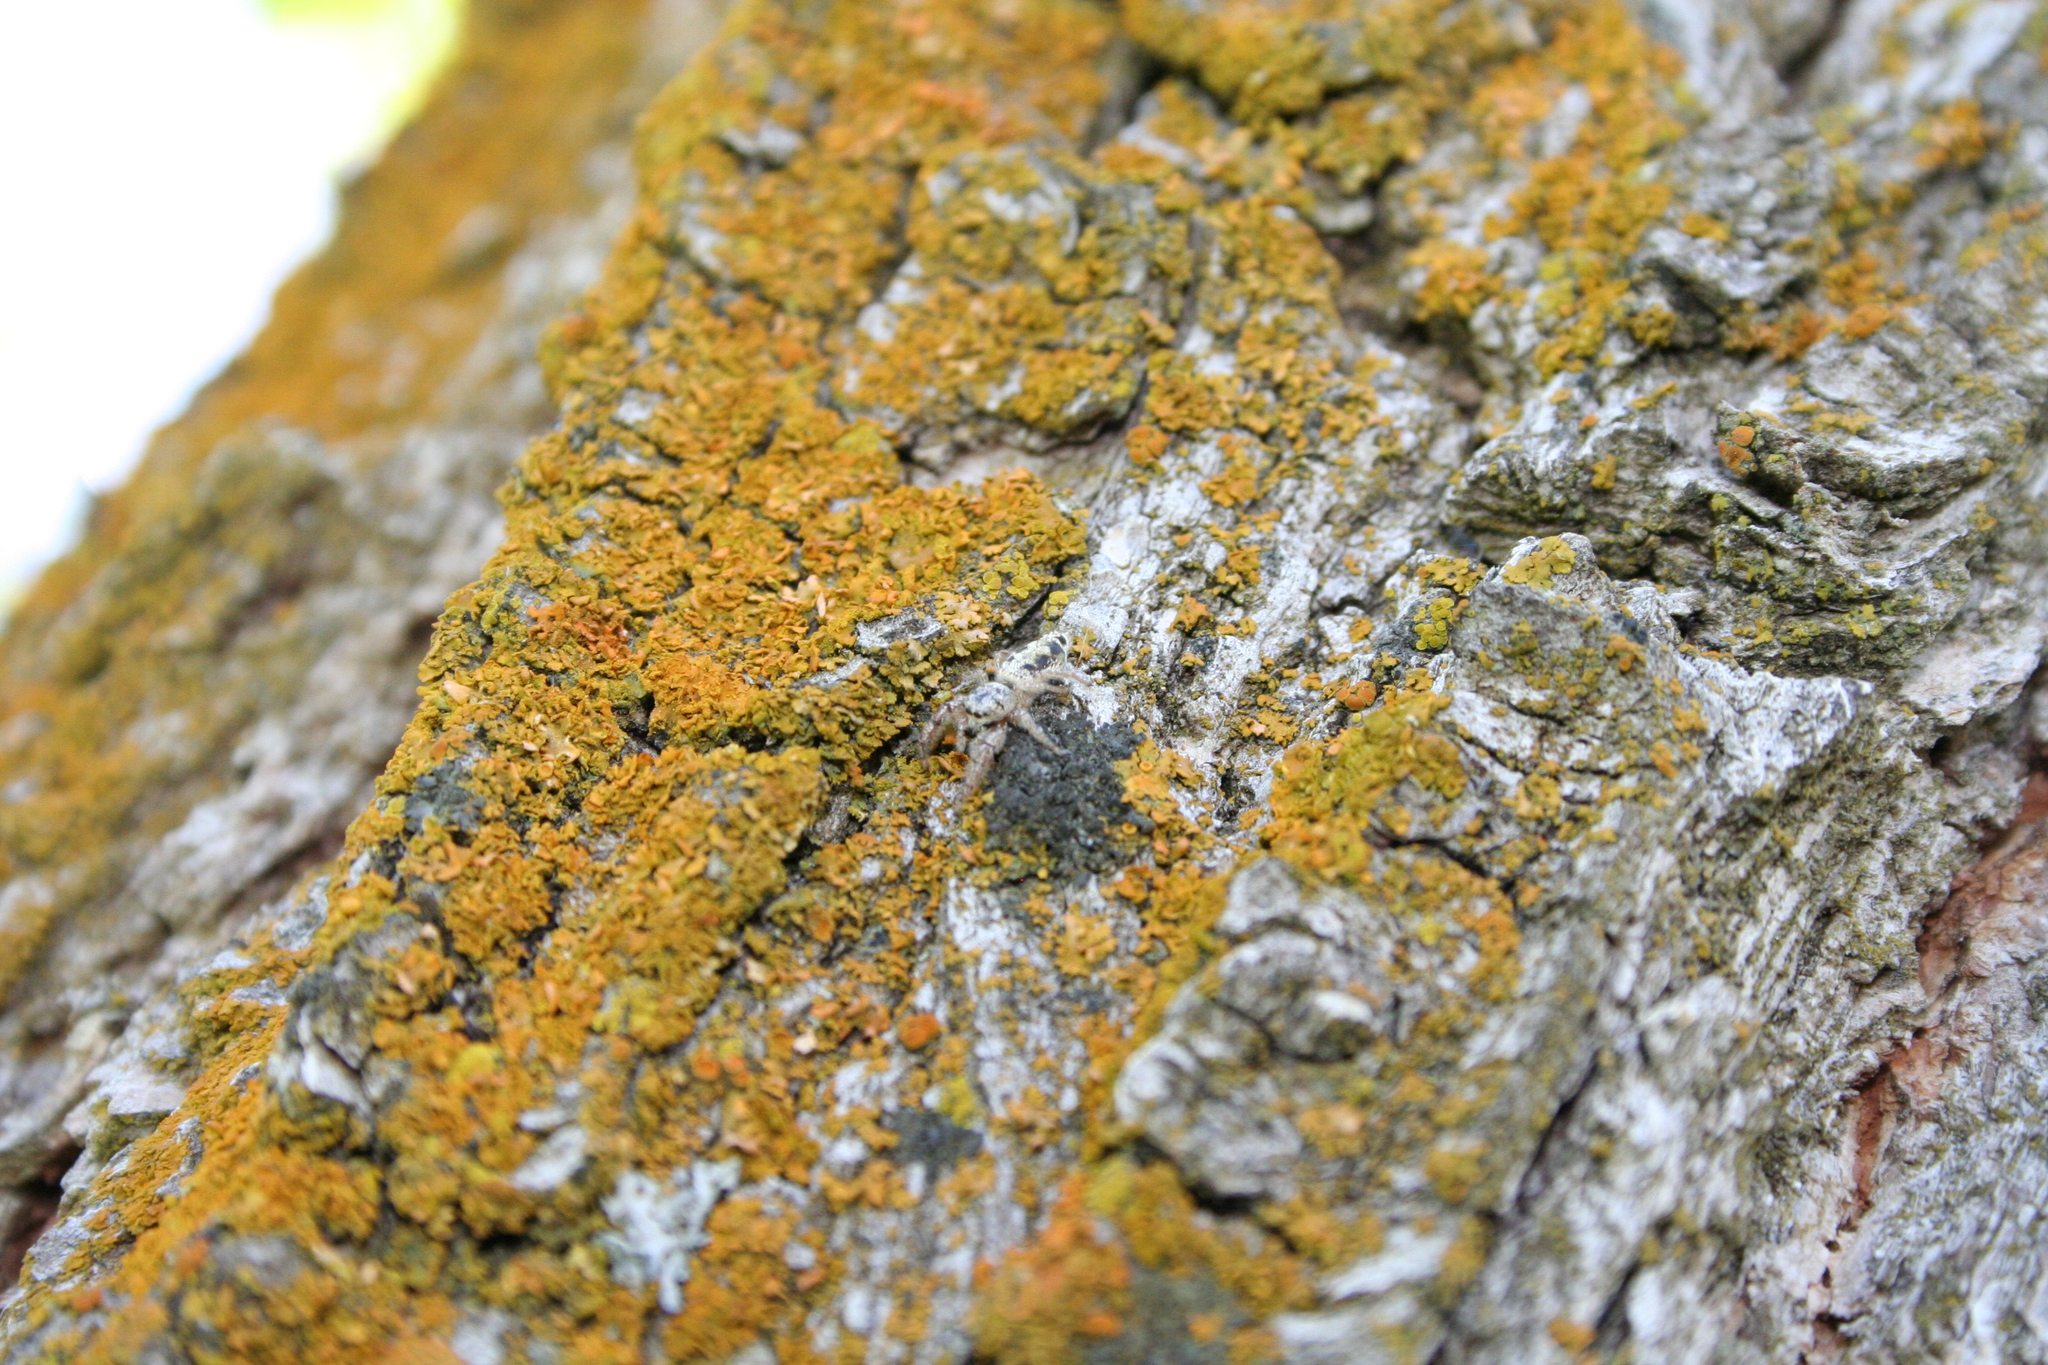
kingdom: Animalia
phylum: Arthropoda
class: Arachnida
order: Araneae
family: Salticidae
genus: Metaphidippus
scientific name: Metaphidippus siticulosus
